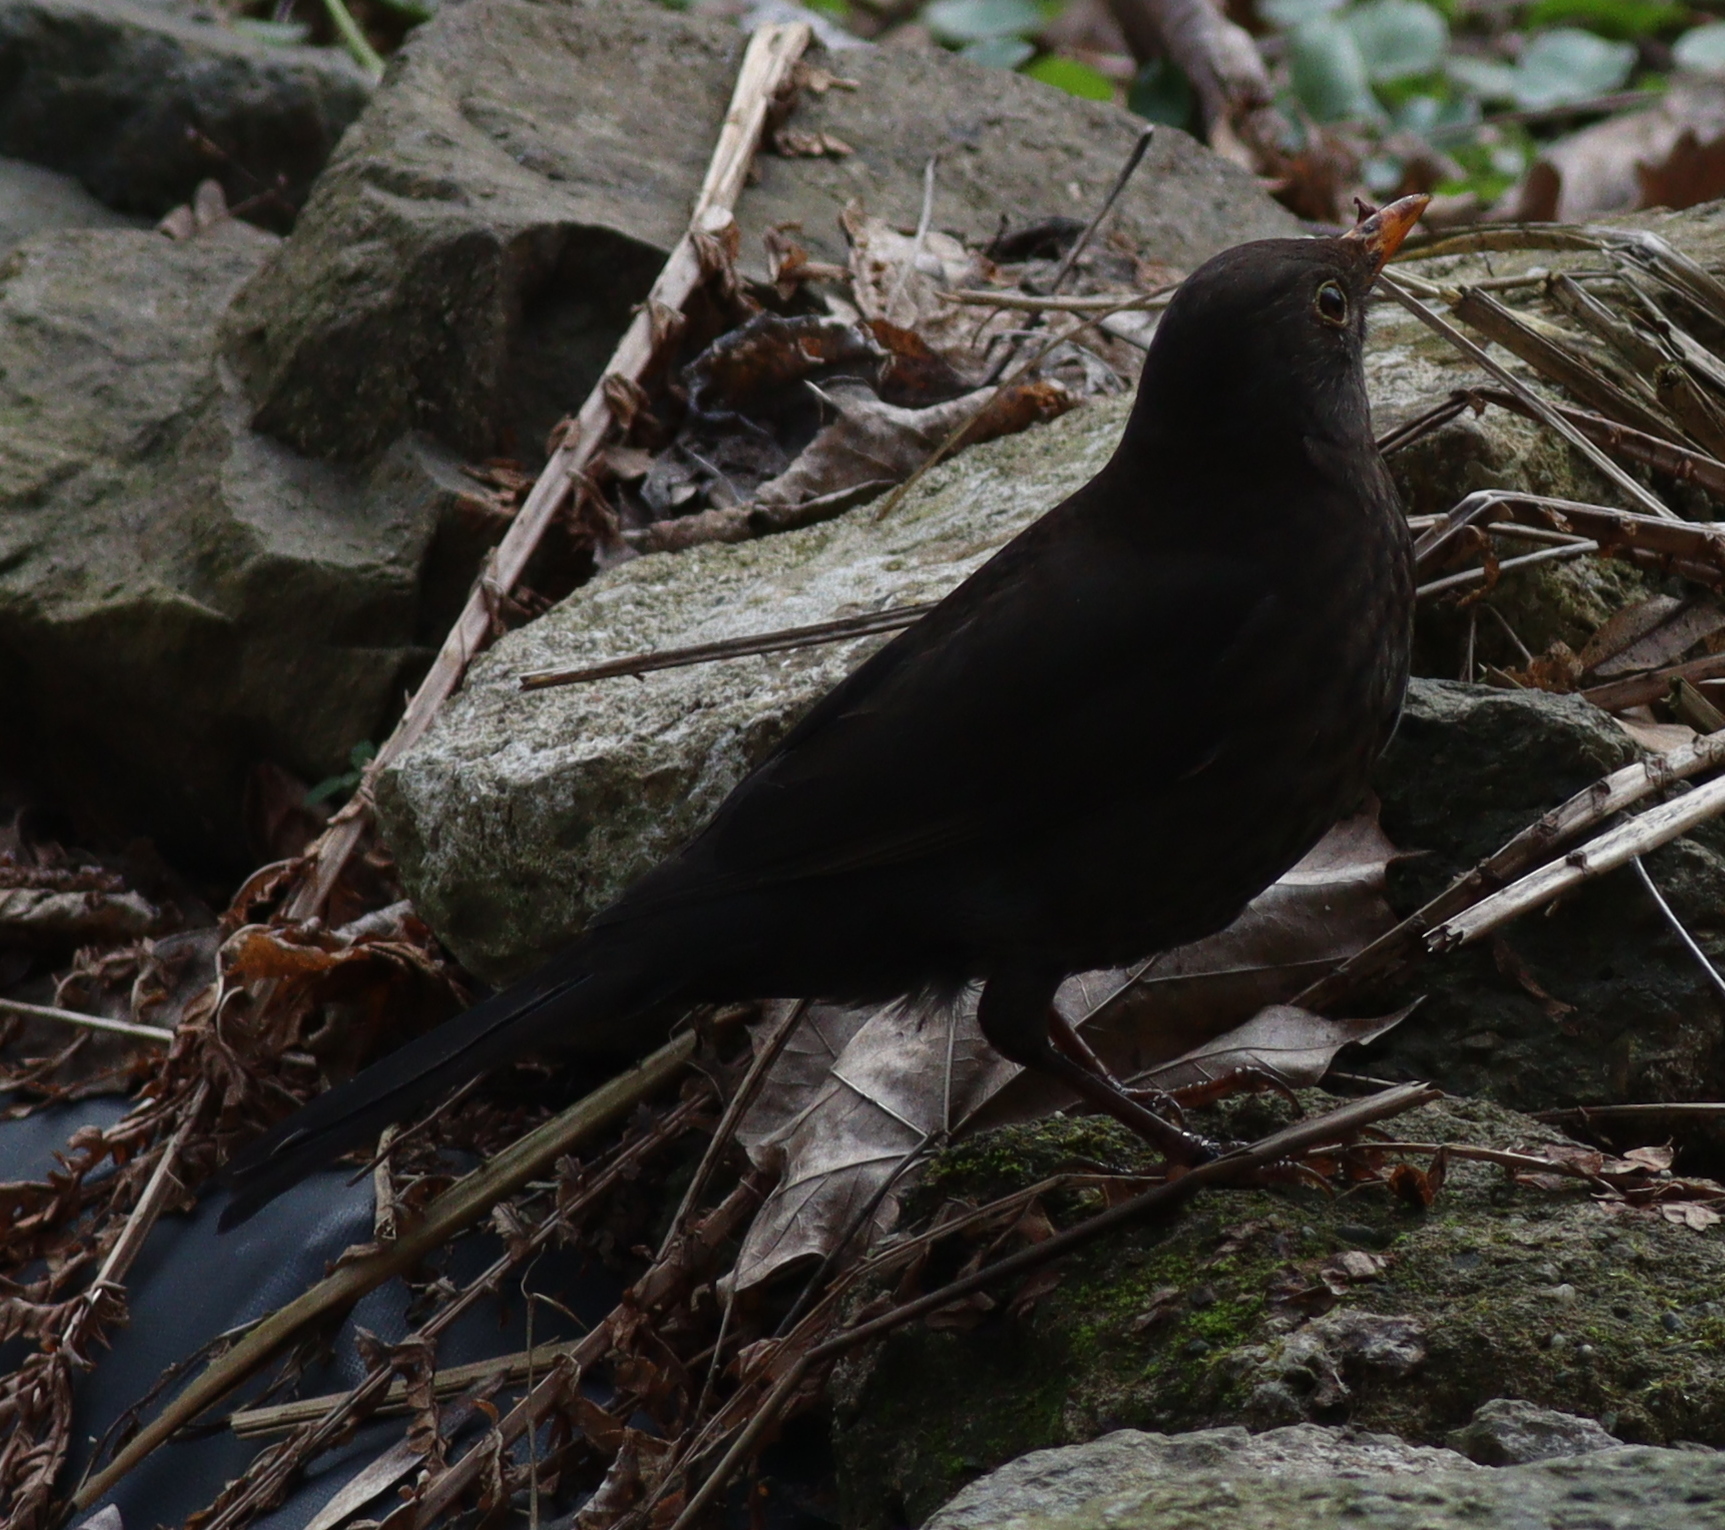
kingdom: Animalia
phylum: Chordata
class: Aves
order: Passeriformes
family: Turdidae
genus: Turdus
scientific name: Turdus merula
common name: Common blackbird
